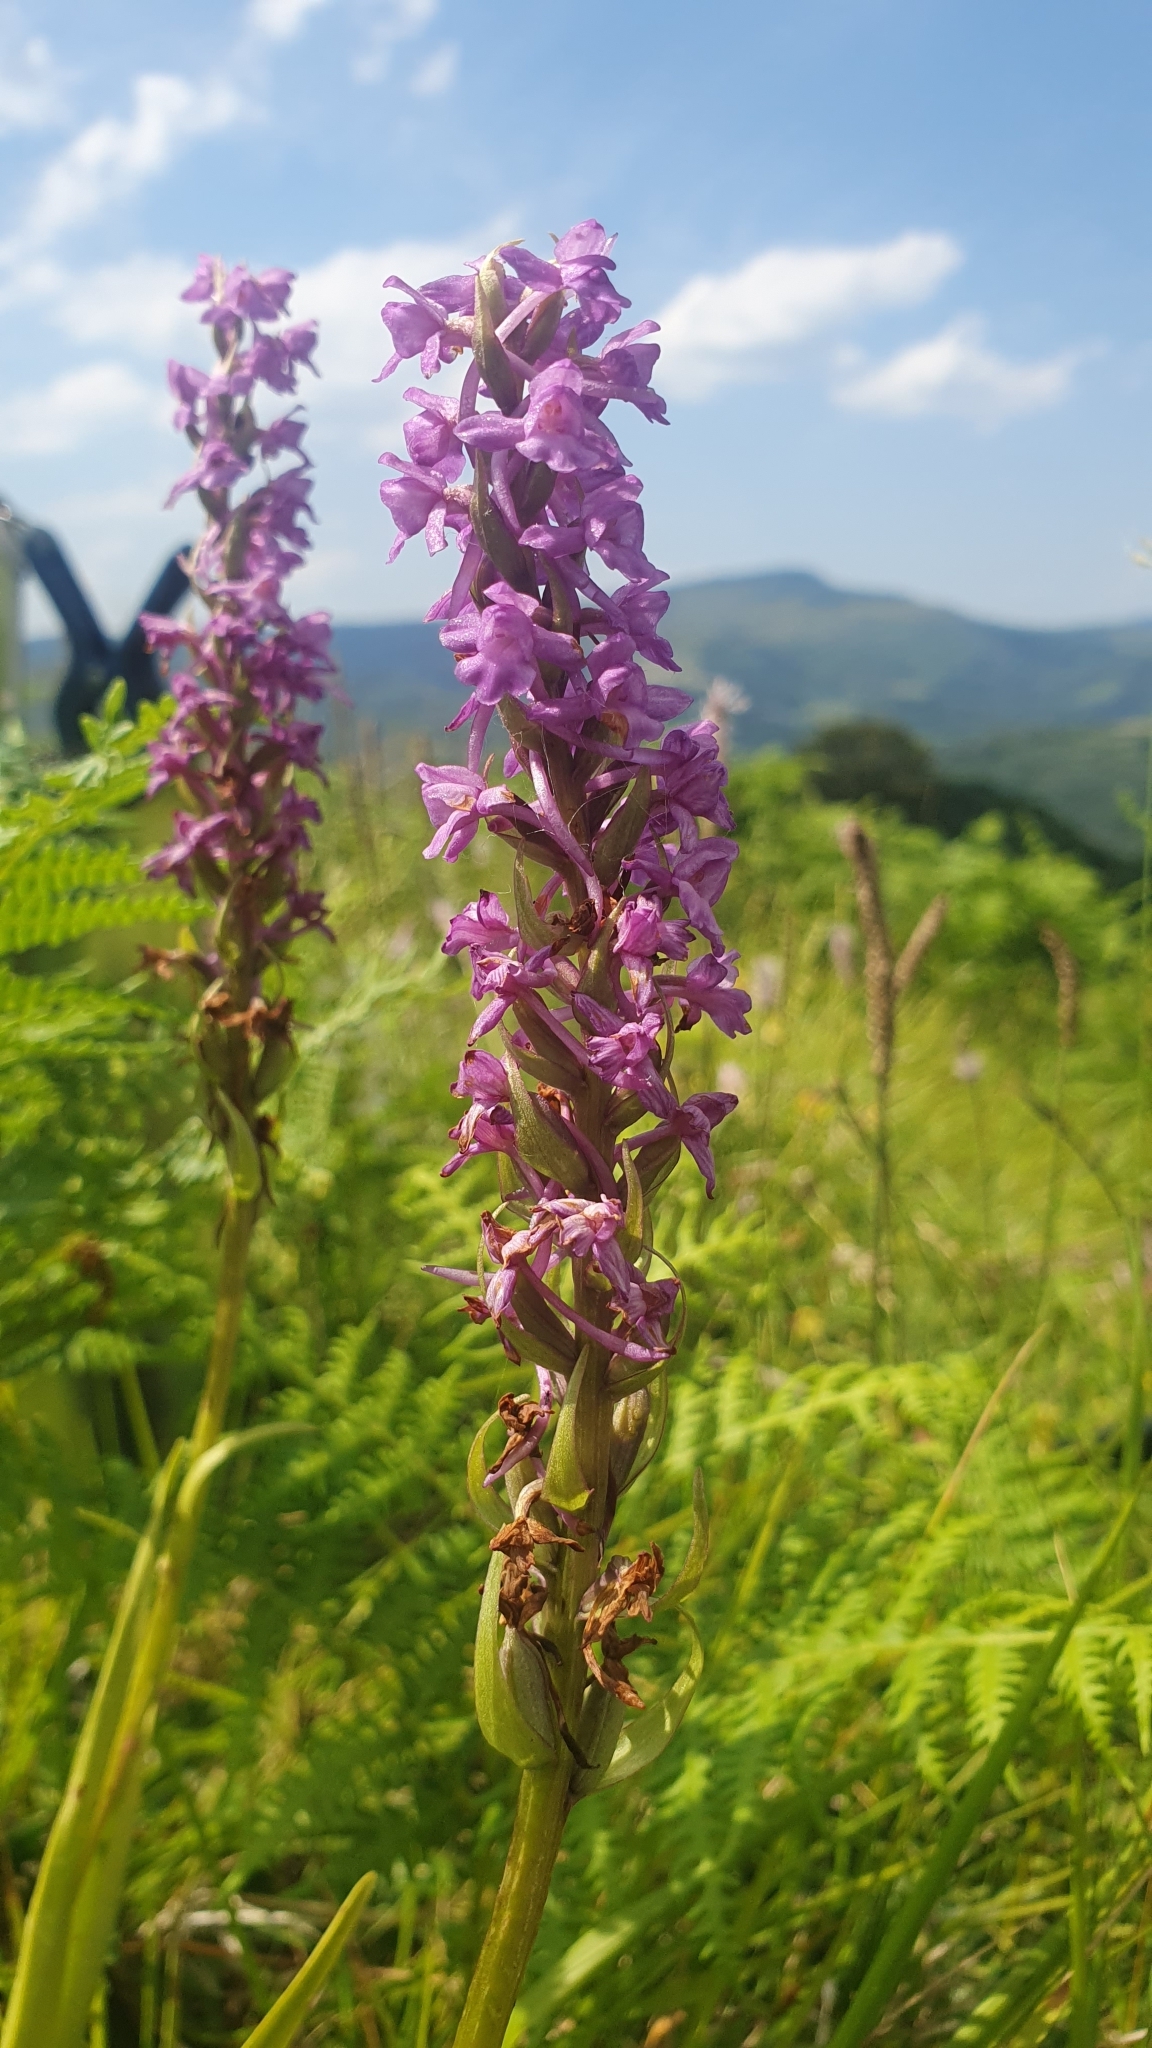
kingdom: Plantae
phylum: Tracheophyta
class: Liliopsida
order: Asparagales
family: Orchidaceae
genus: Gymnadenia
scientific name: Gymnadenia conopsea
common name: Fragrant orchid
